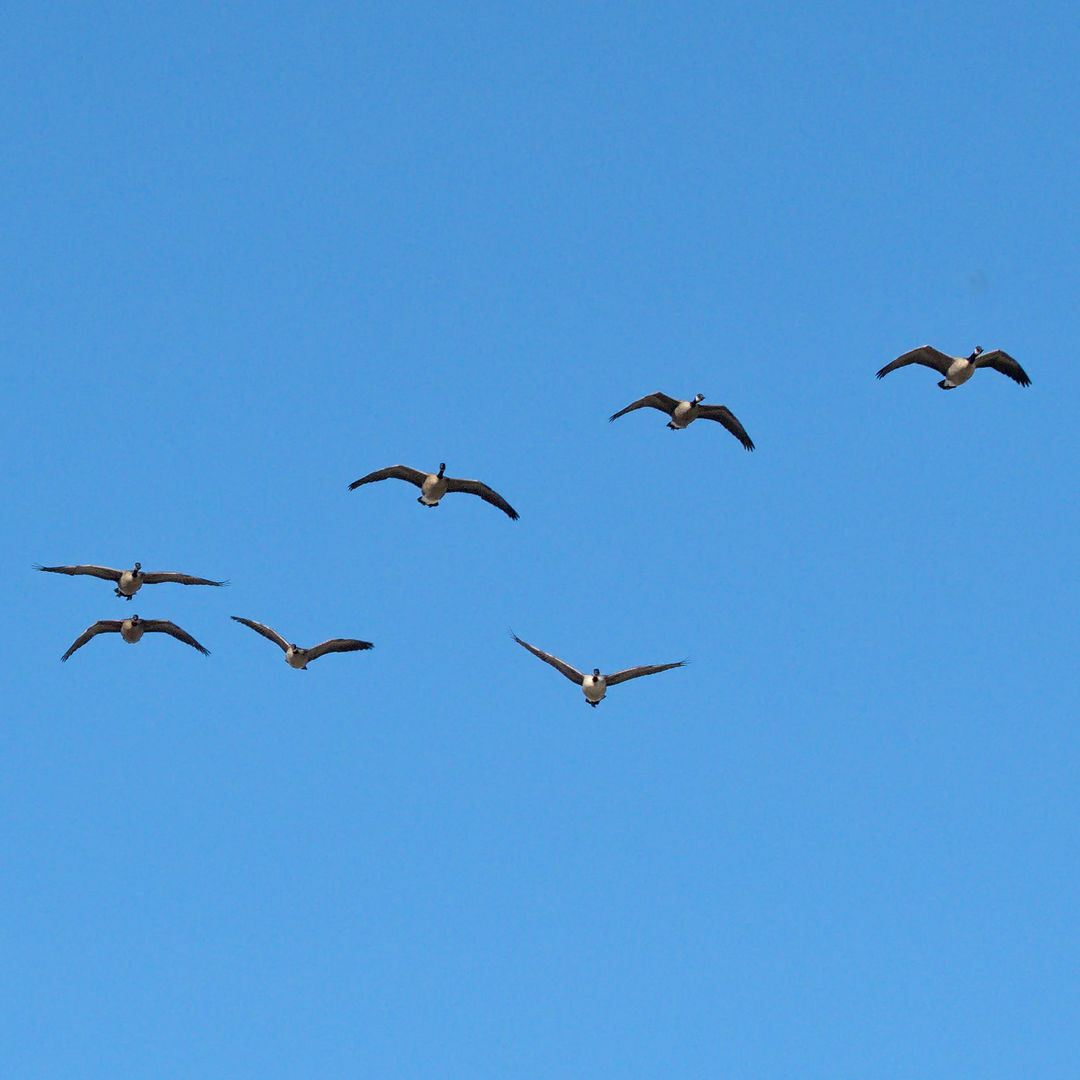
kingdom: Animalia
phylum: Chordata
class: Aves
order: Anseriformes
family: Anatidae
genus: Branta
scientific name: Branta canadensis
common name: Canada goose
